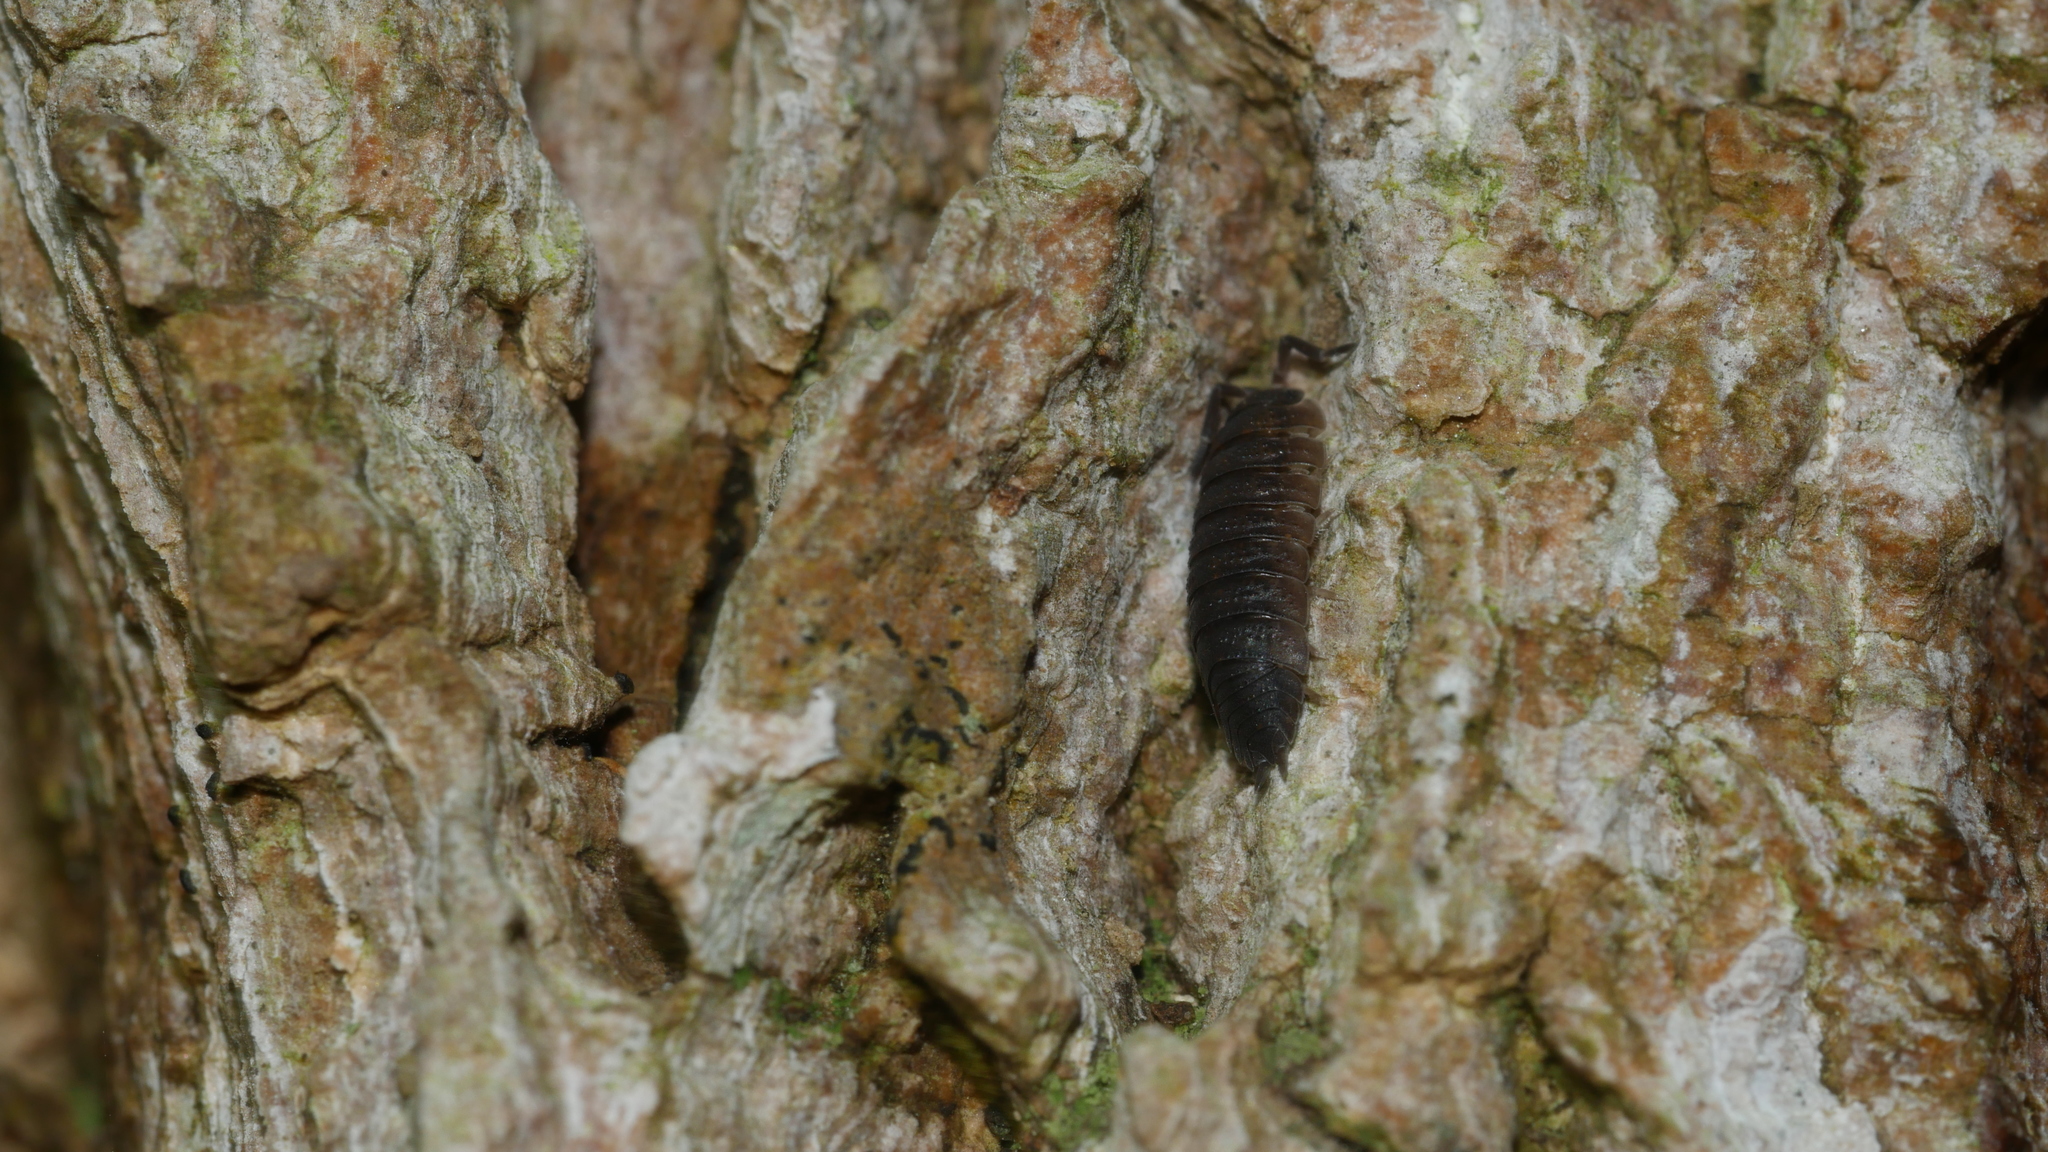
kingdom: Animalia
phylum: Arthropoda
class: Malacostraca
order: Isopoda
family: Porcellionidae
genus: Porcellio
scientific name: Porcellio scaber
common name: Common rough woodlouse
